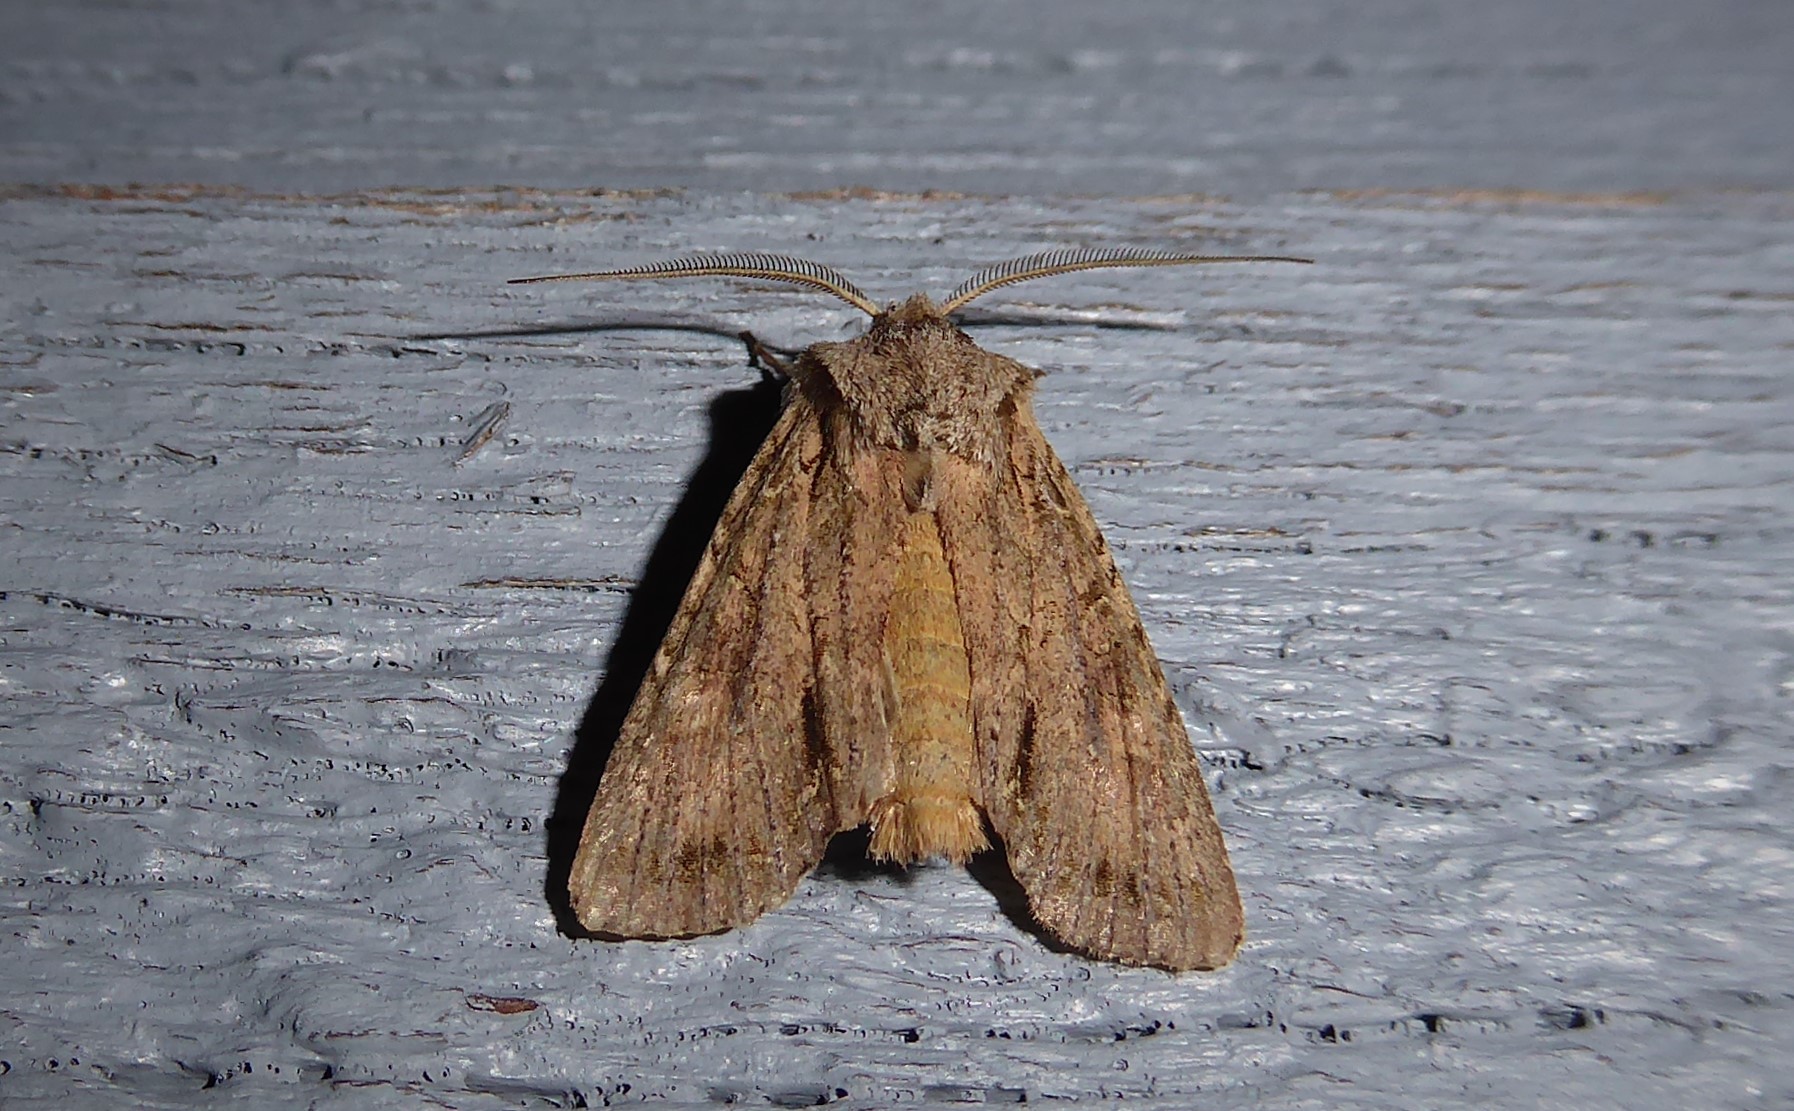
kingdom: Animalia
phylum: Arthropoda
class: Insecta
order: Lepidoptera
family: Noctuidae
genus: Ichneutica
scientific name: Ichneutica
